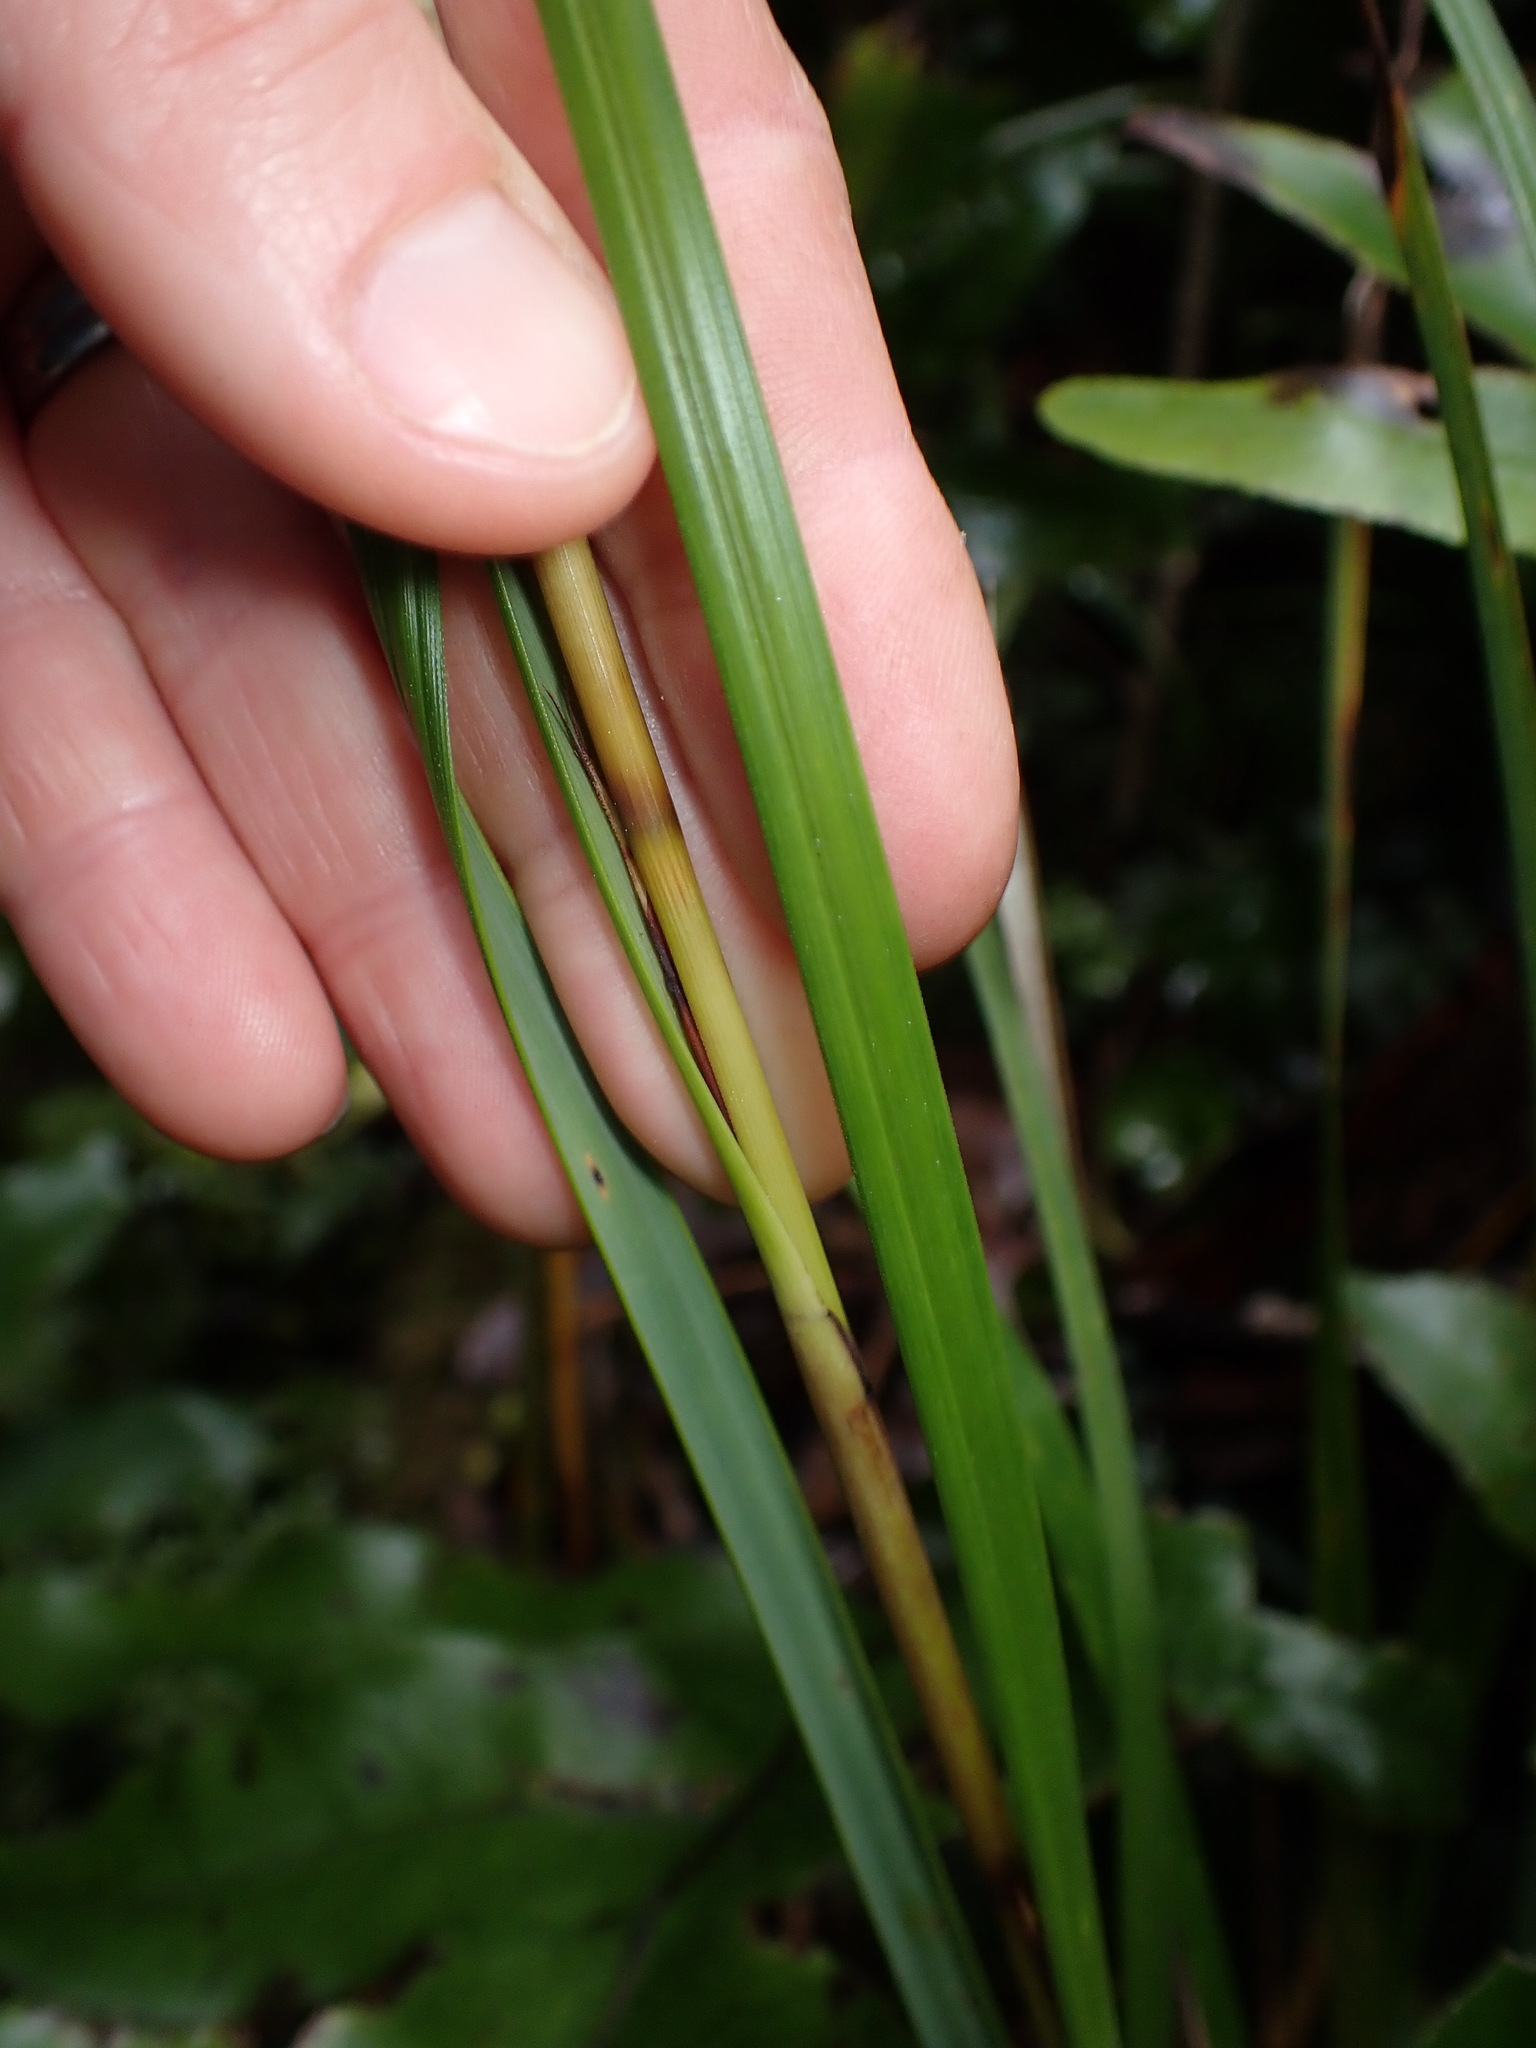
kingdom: Plantae
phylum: Tracheophyta
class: Liliopsida
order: Poales
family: Cyperaceae
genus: Gahnia
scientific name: Gahnia pauciflora
